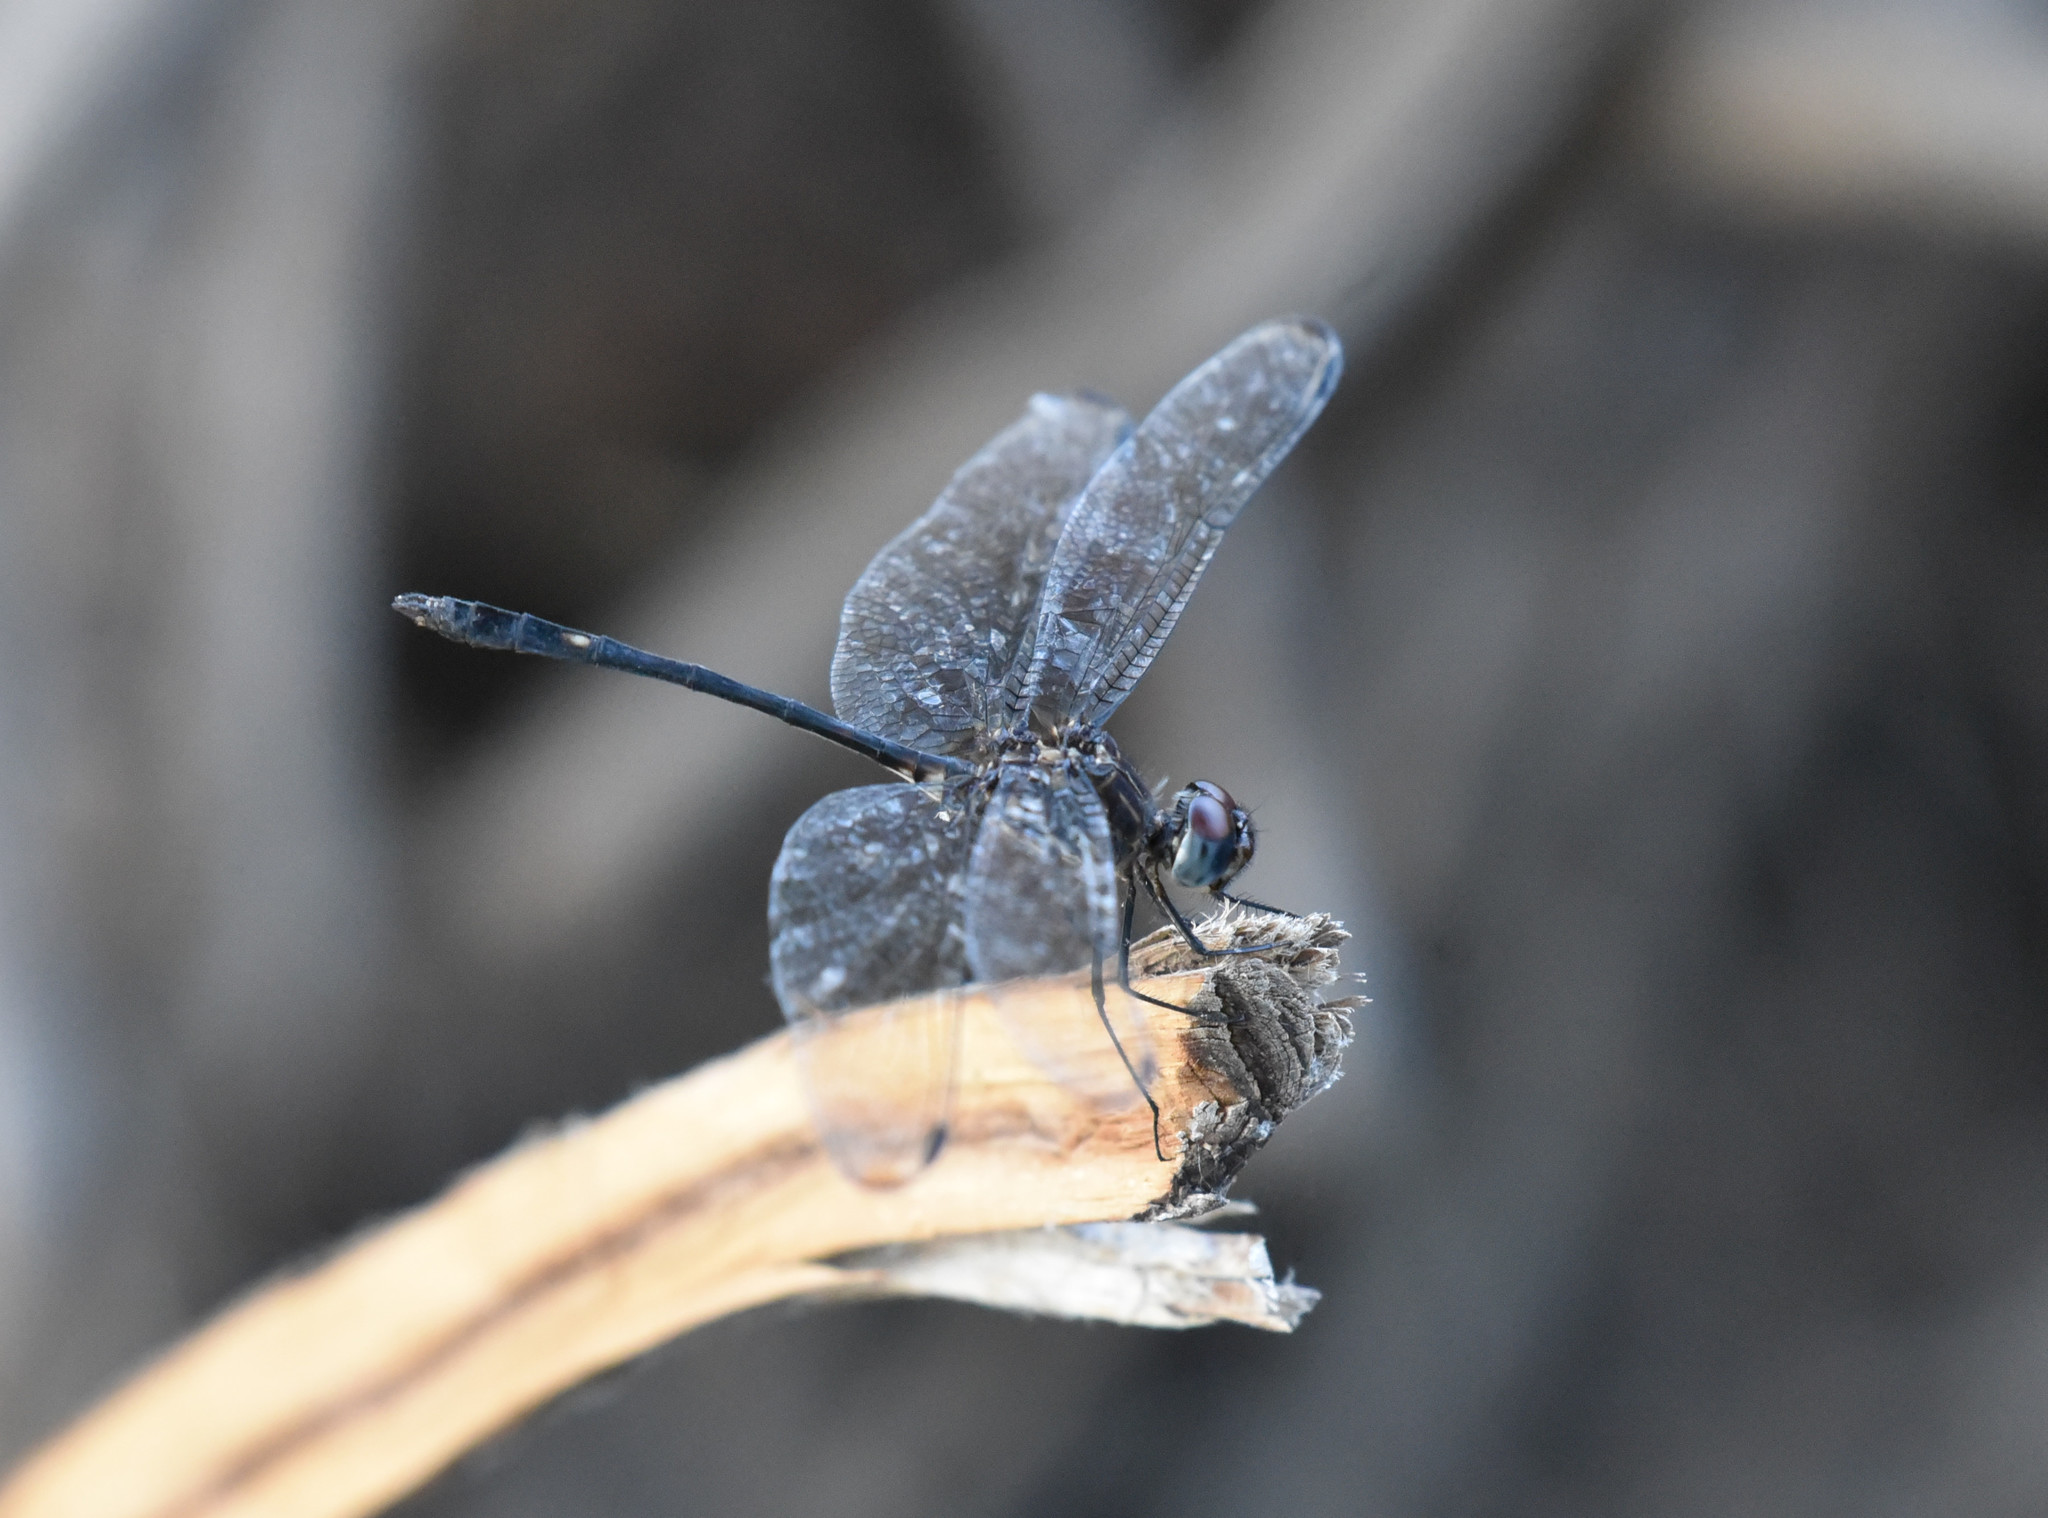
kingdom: Animalia
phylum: Arthropoda
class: Insecta
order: Odonata
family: Libellulidae
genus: Dythemis
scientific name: Dythemis velox
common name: Swift setwing
